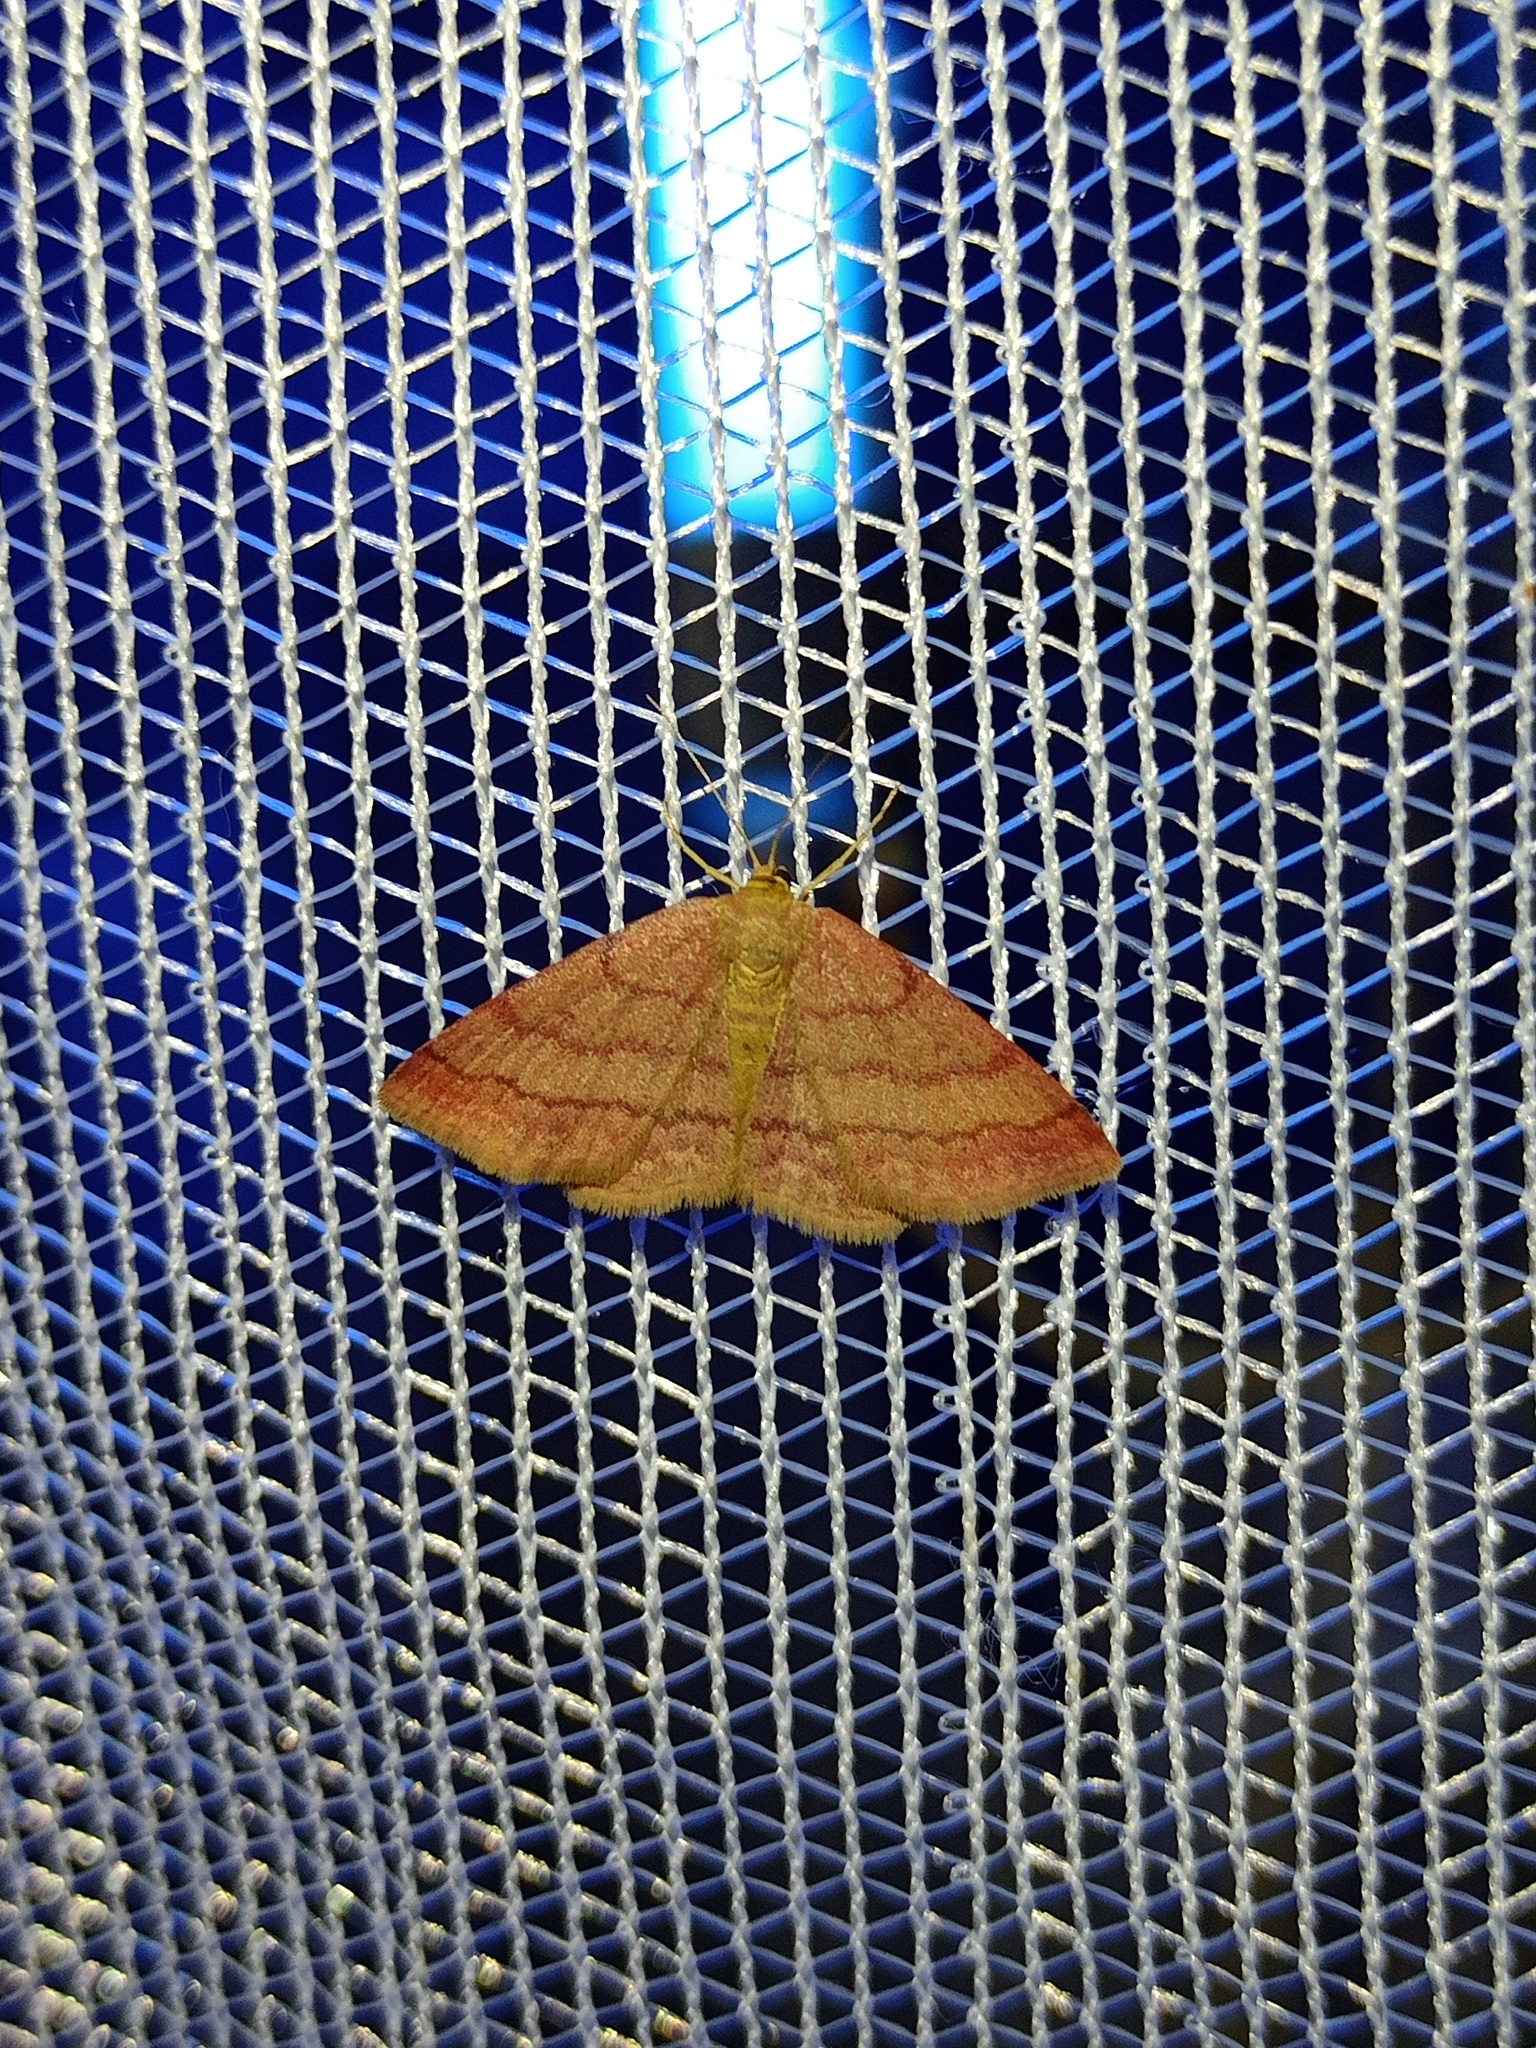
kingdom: Animalia
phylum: Arthropoda
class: Insecta
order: Lepidoptera
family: Geometridae
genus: Scopula
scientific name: Scopula rubiginata
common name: Tawny wave
